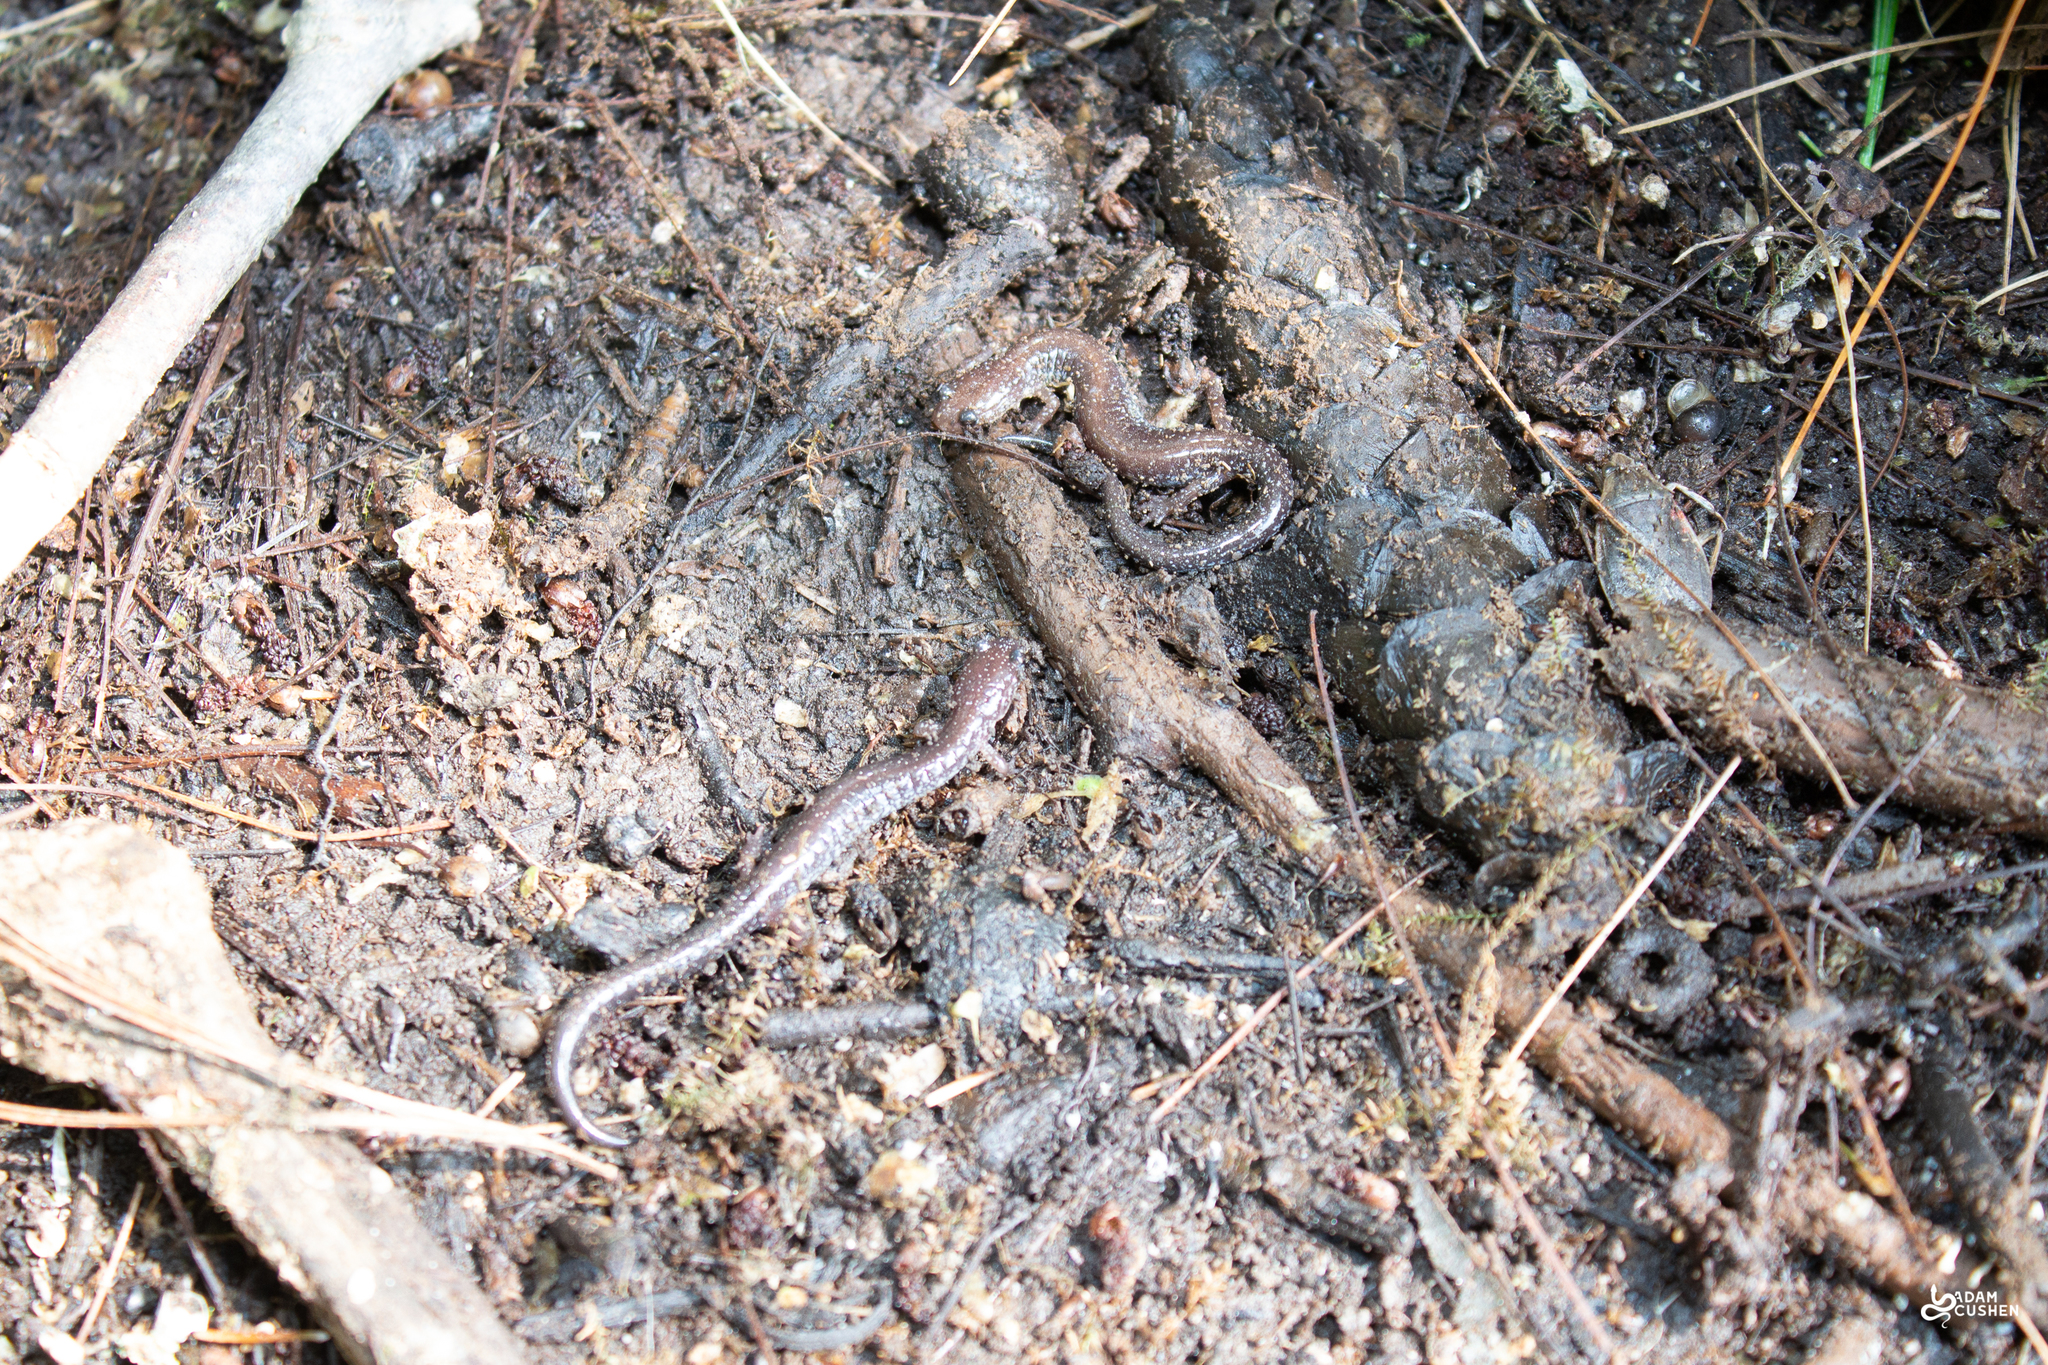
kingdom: Animalia
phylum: Chordata
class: Amphibia
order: Caudata
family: Plethodontidae
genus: Plethodon
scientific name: Plethodon cinereus
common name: Redback salamander
